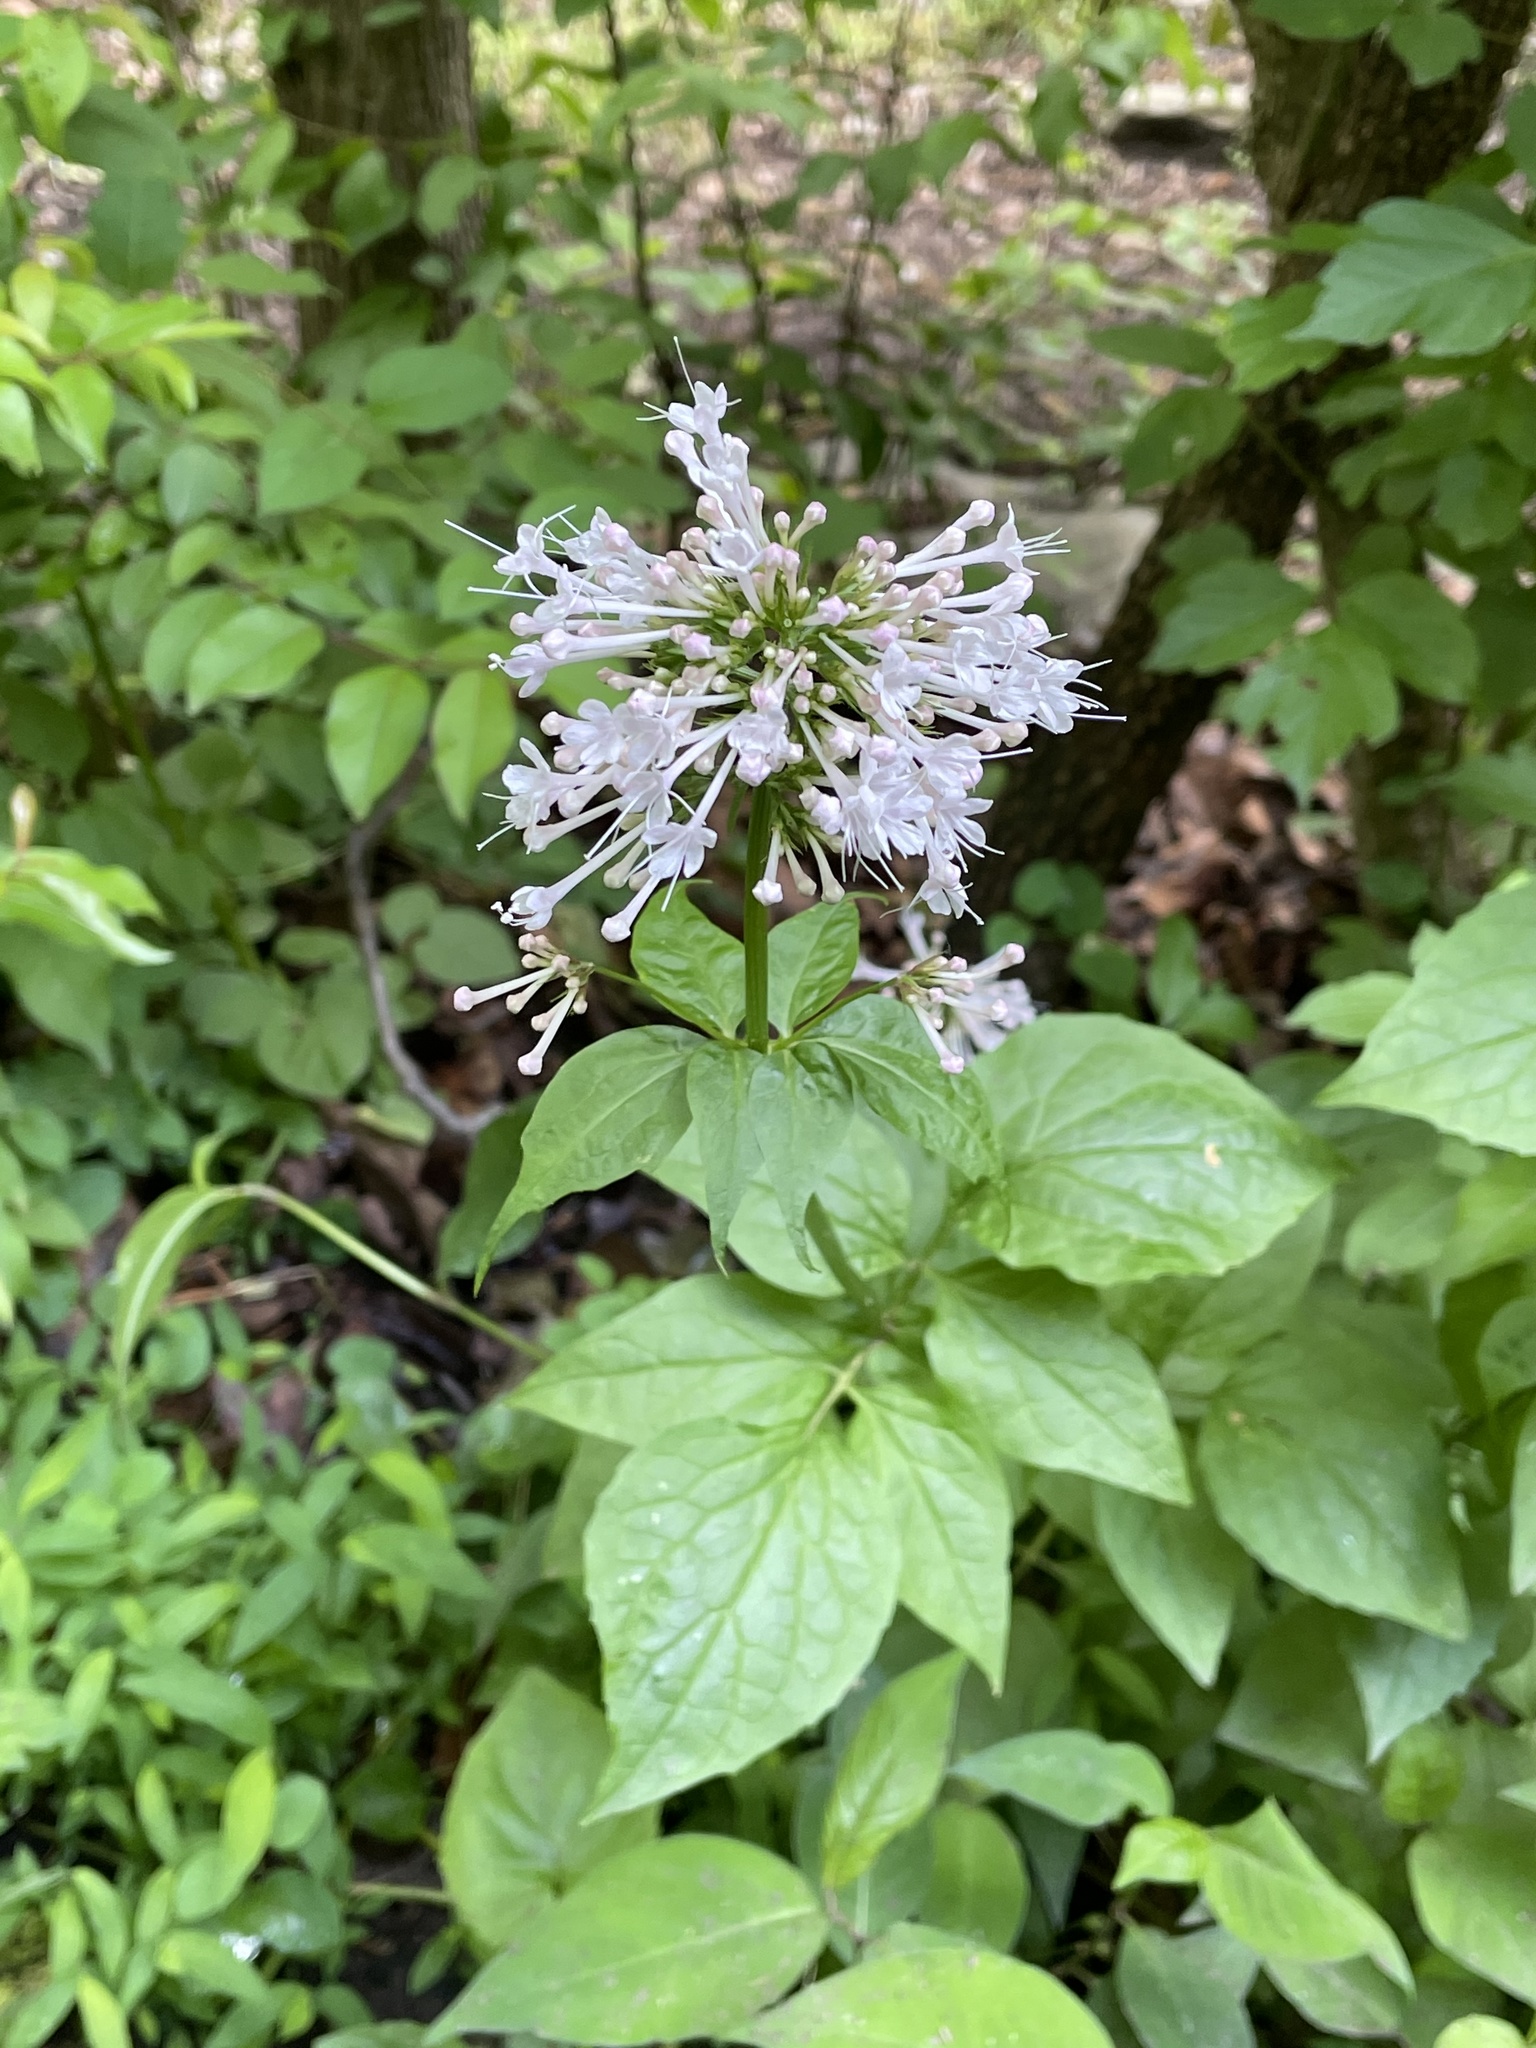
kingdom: Plantae
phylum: Tracheophyta
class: Magnoliopsida
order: Dipsacales
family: Caprifoliaceae
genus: Valeriana
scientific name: Valeriana pauciflora
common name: Long-tube valeriana
